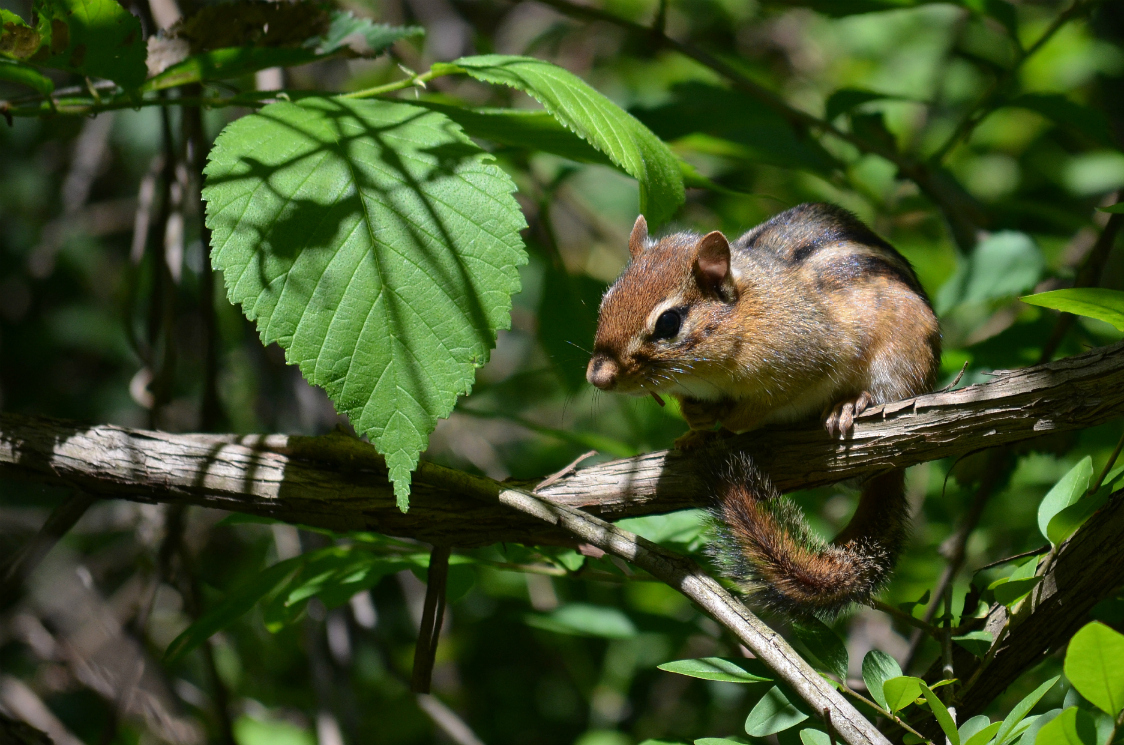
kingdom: Animalia
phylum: Chordata
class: Mammalia
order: Rodentia
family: Sciuridae
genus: Tamias
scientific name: Tamias striatus
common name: Eastern chipmunk
